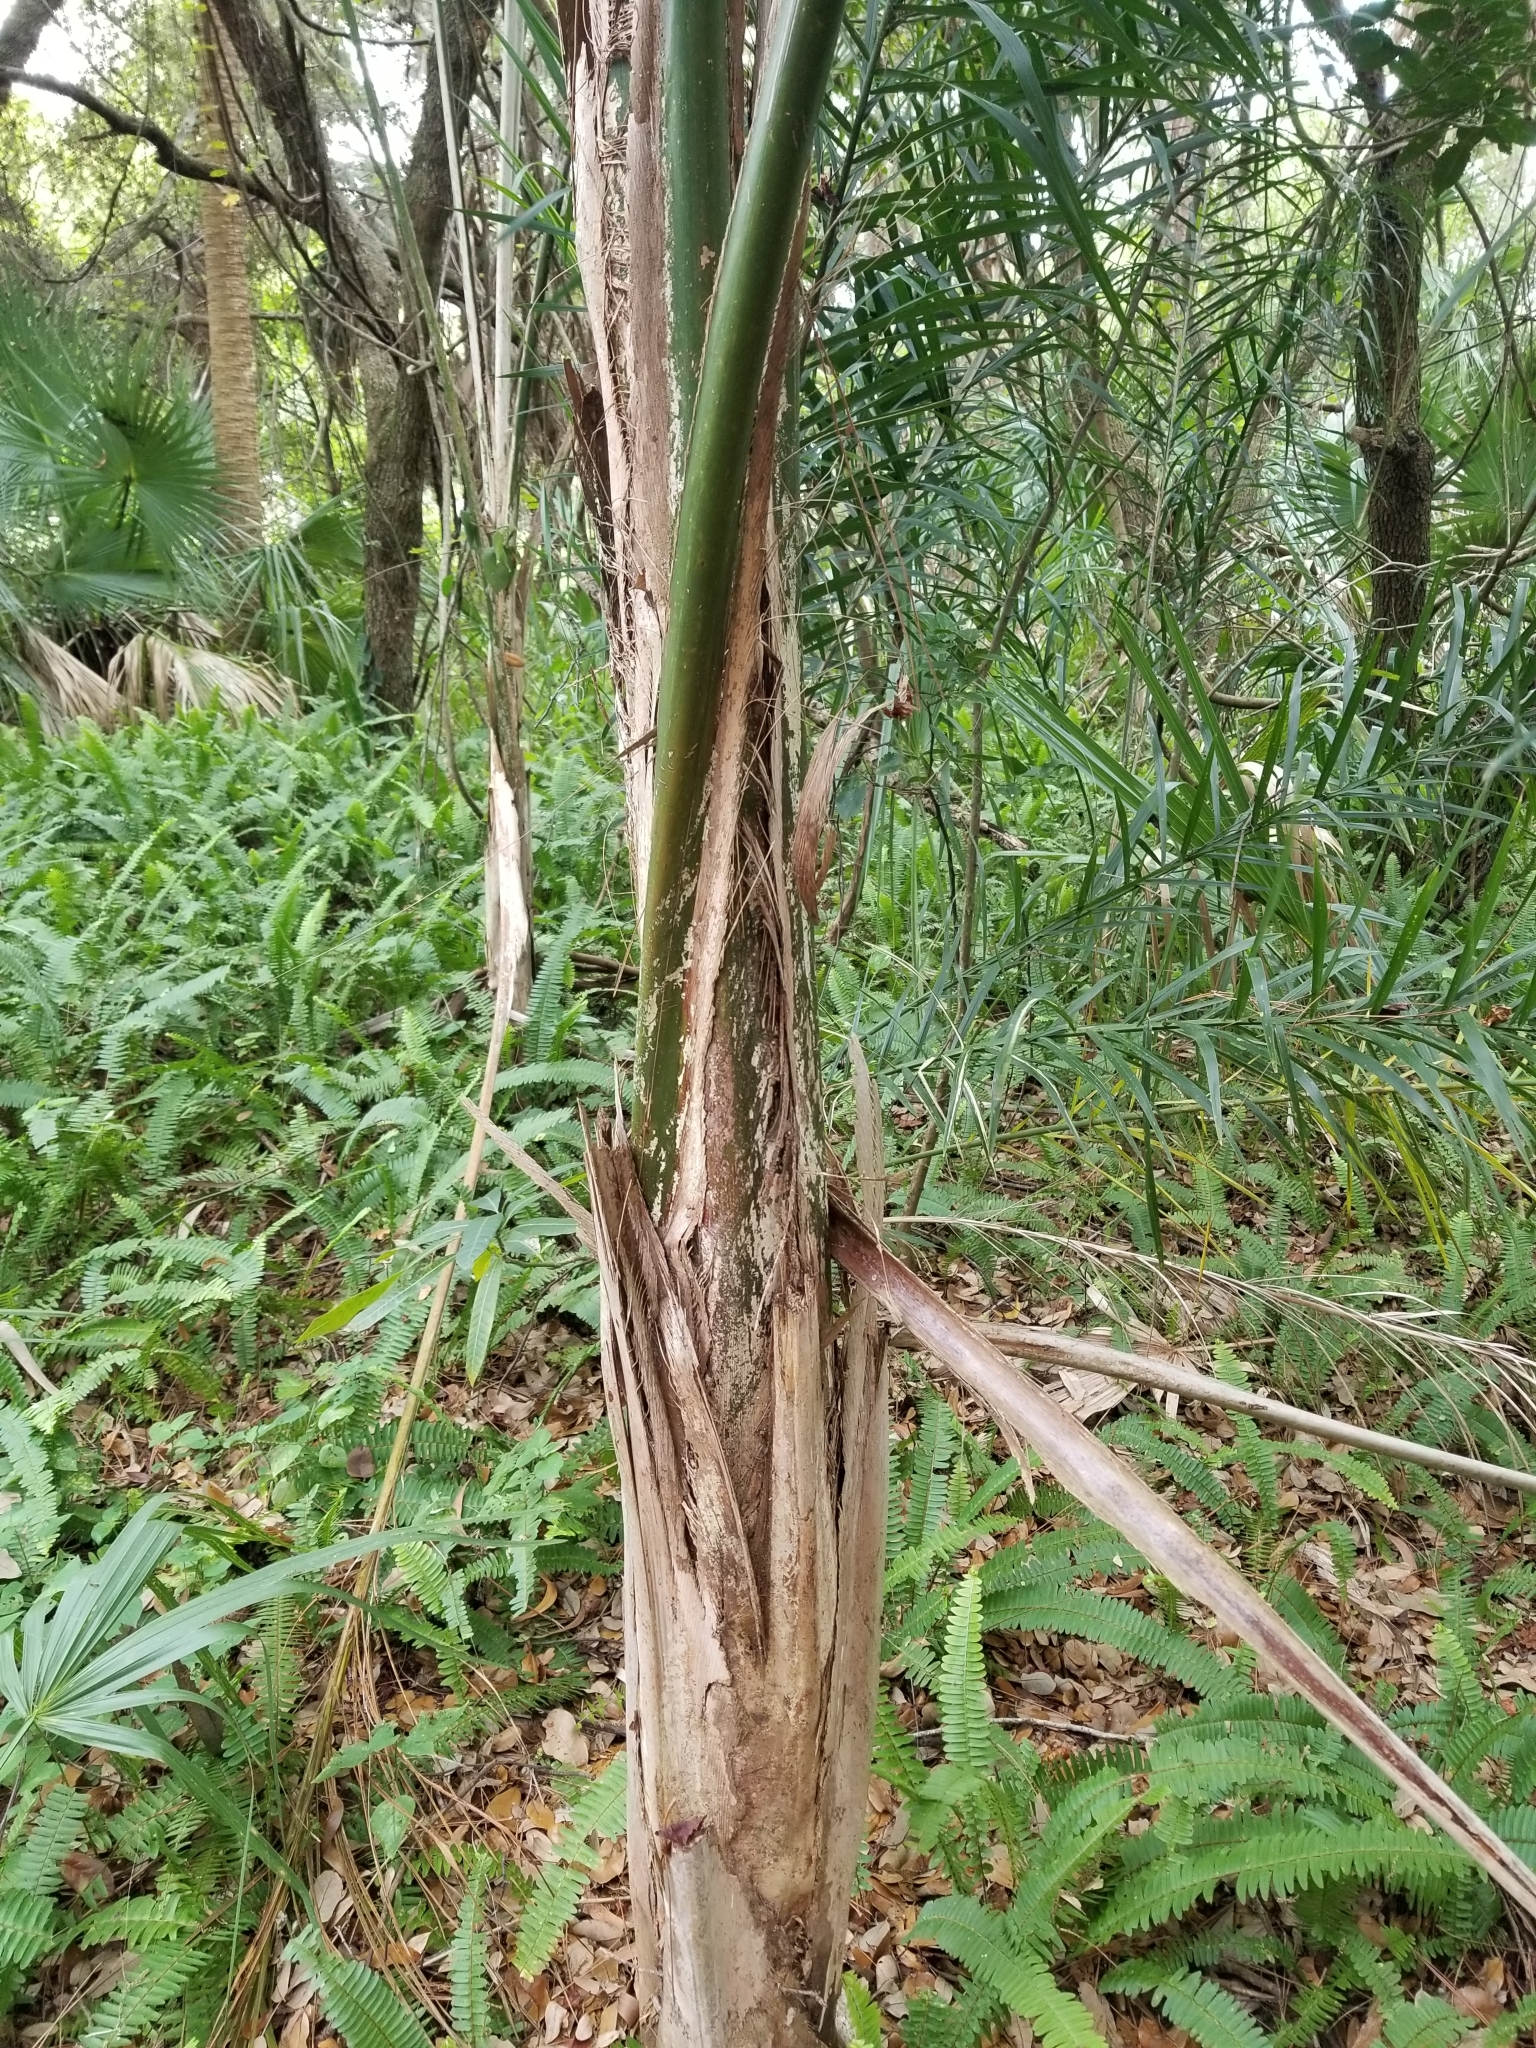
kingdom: Plantae
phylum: Tracheophyta
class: Liliopsida
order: Arecales
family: Arecaceae
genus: Syagrus
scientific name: Syagrus romanzoffiana
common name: Queen palm
